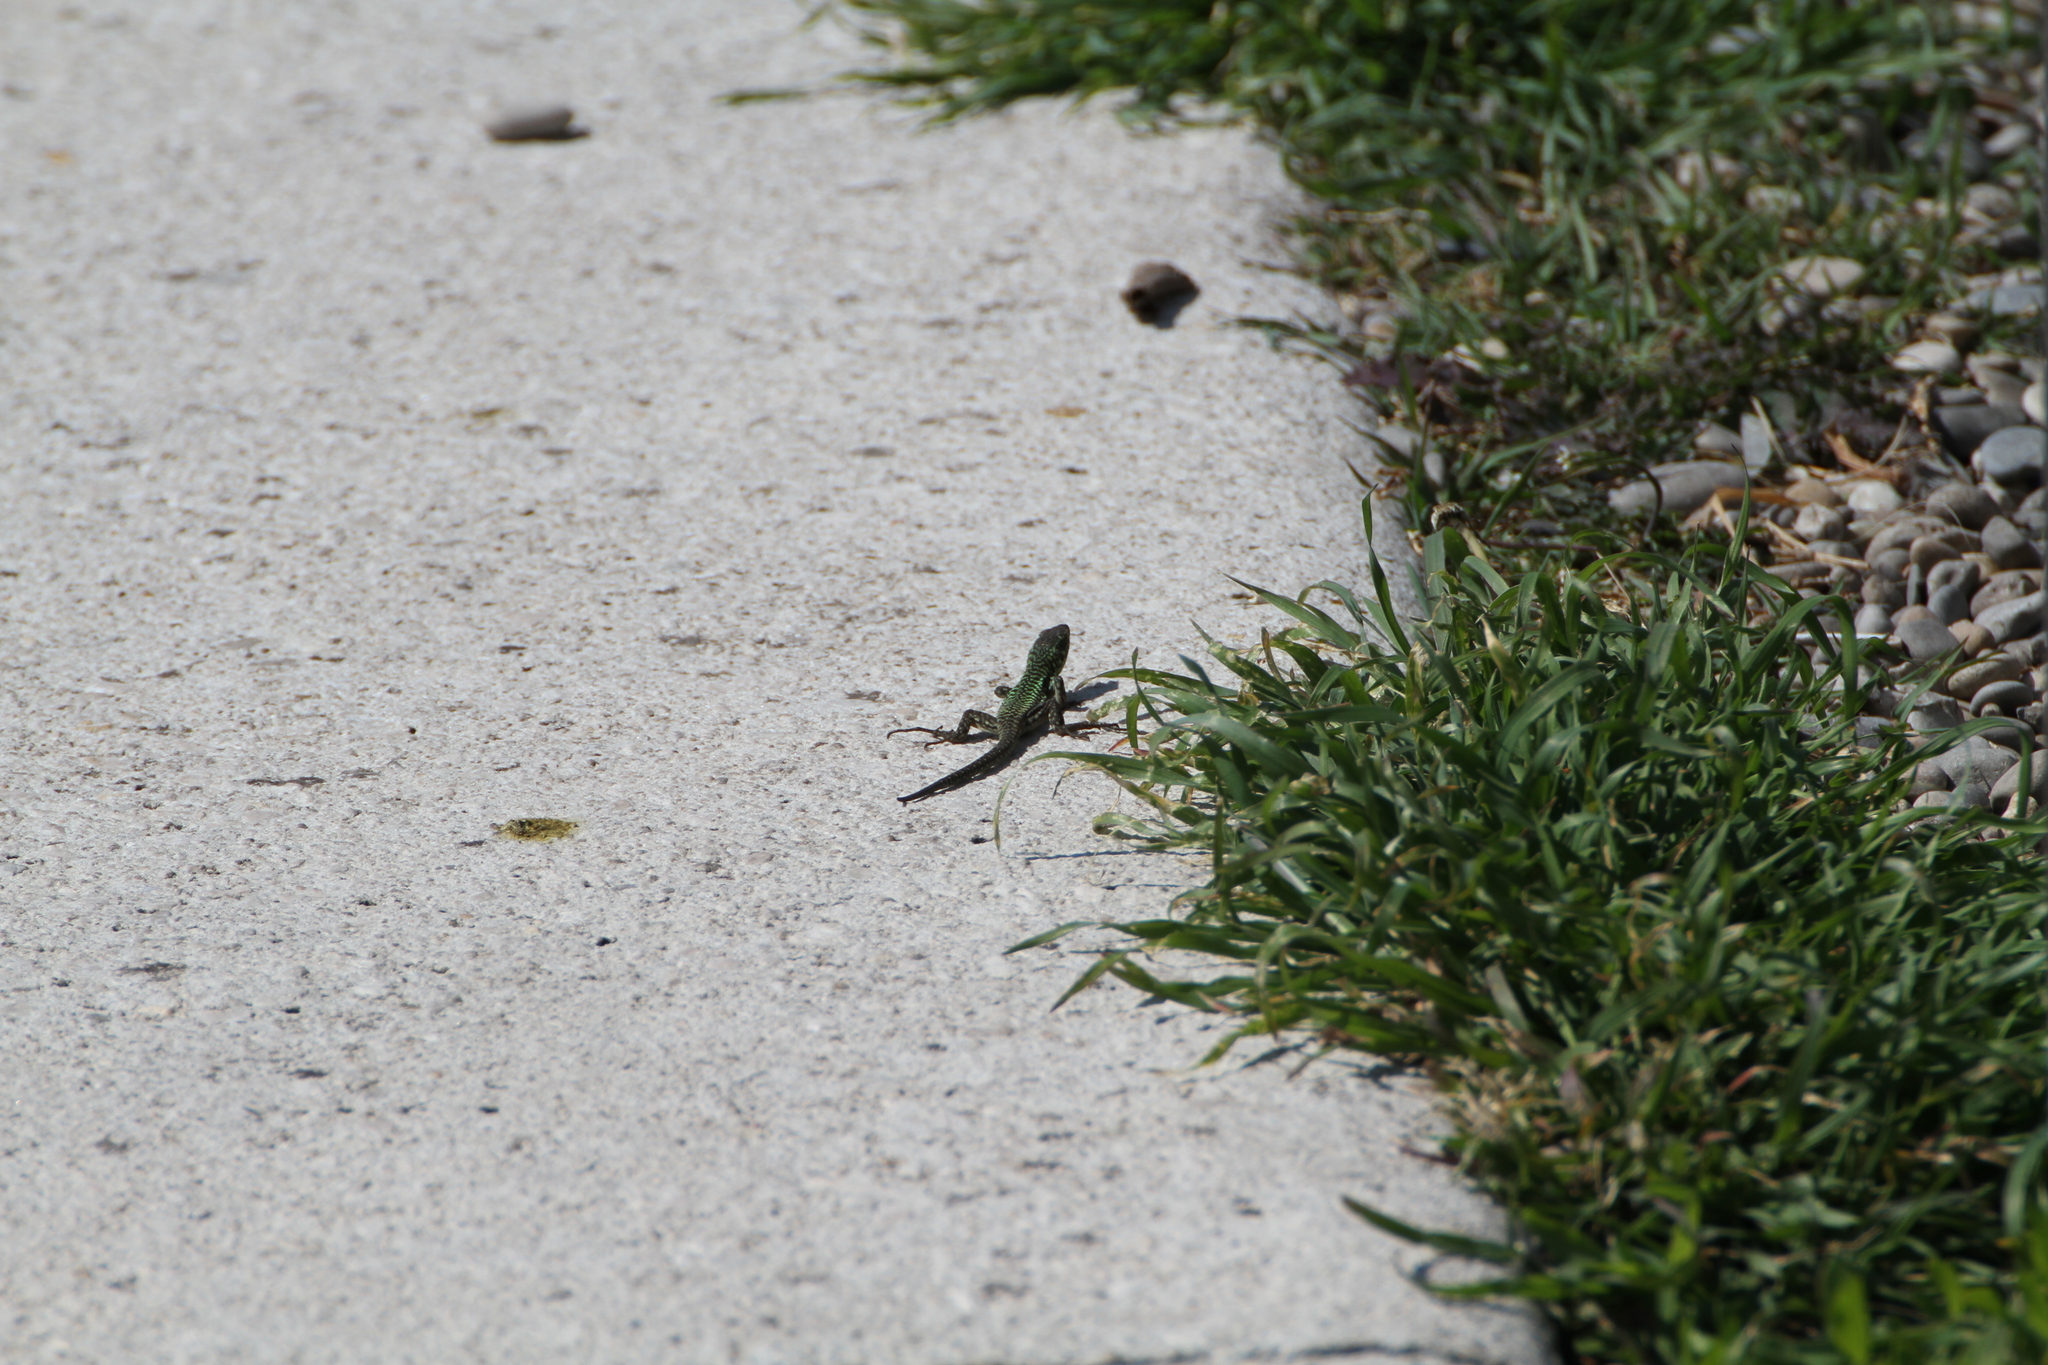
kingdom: Animalia
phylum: Chordata
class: Squamata
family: Lacertidae
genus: Podarcis
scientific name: Podarcis siculus
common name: Italian wall lizard
